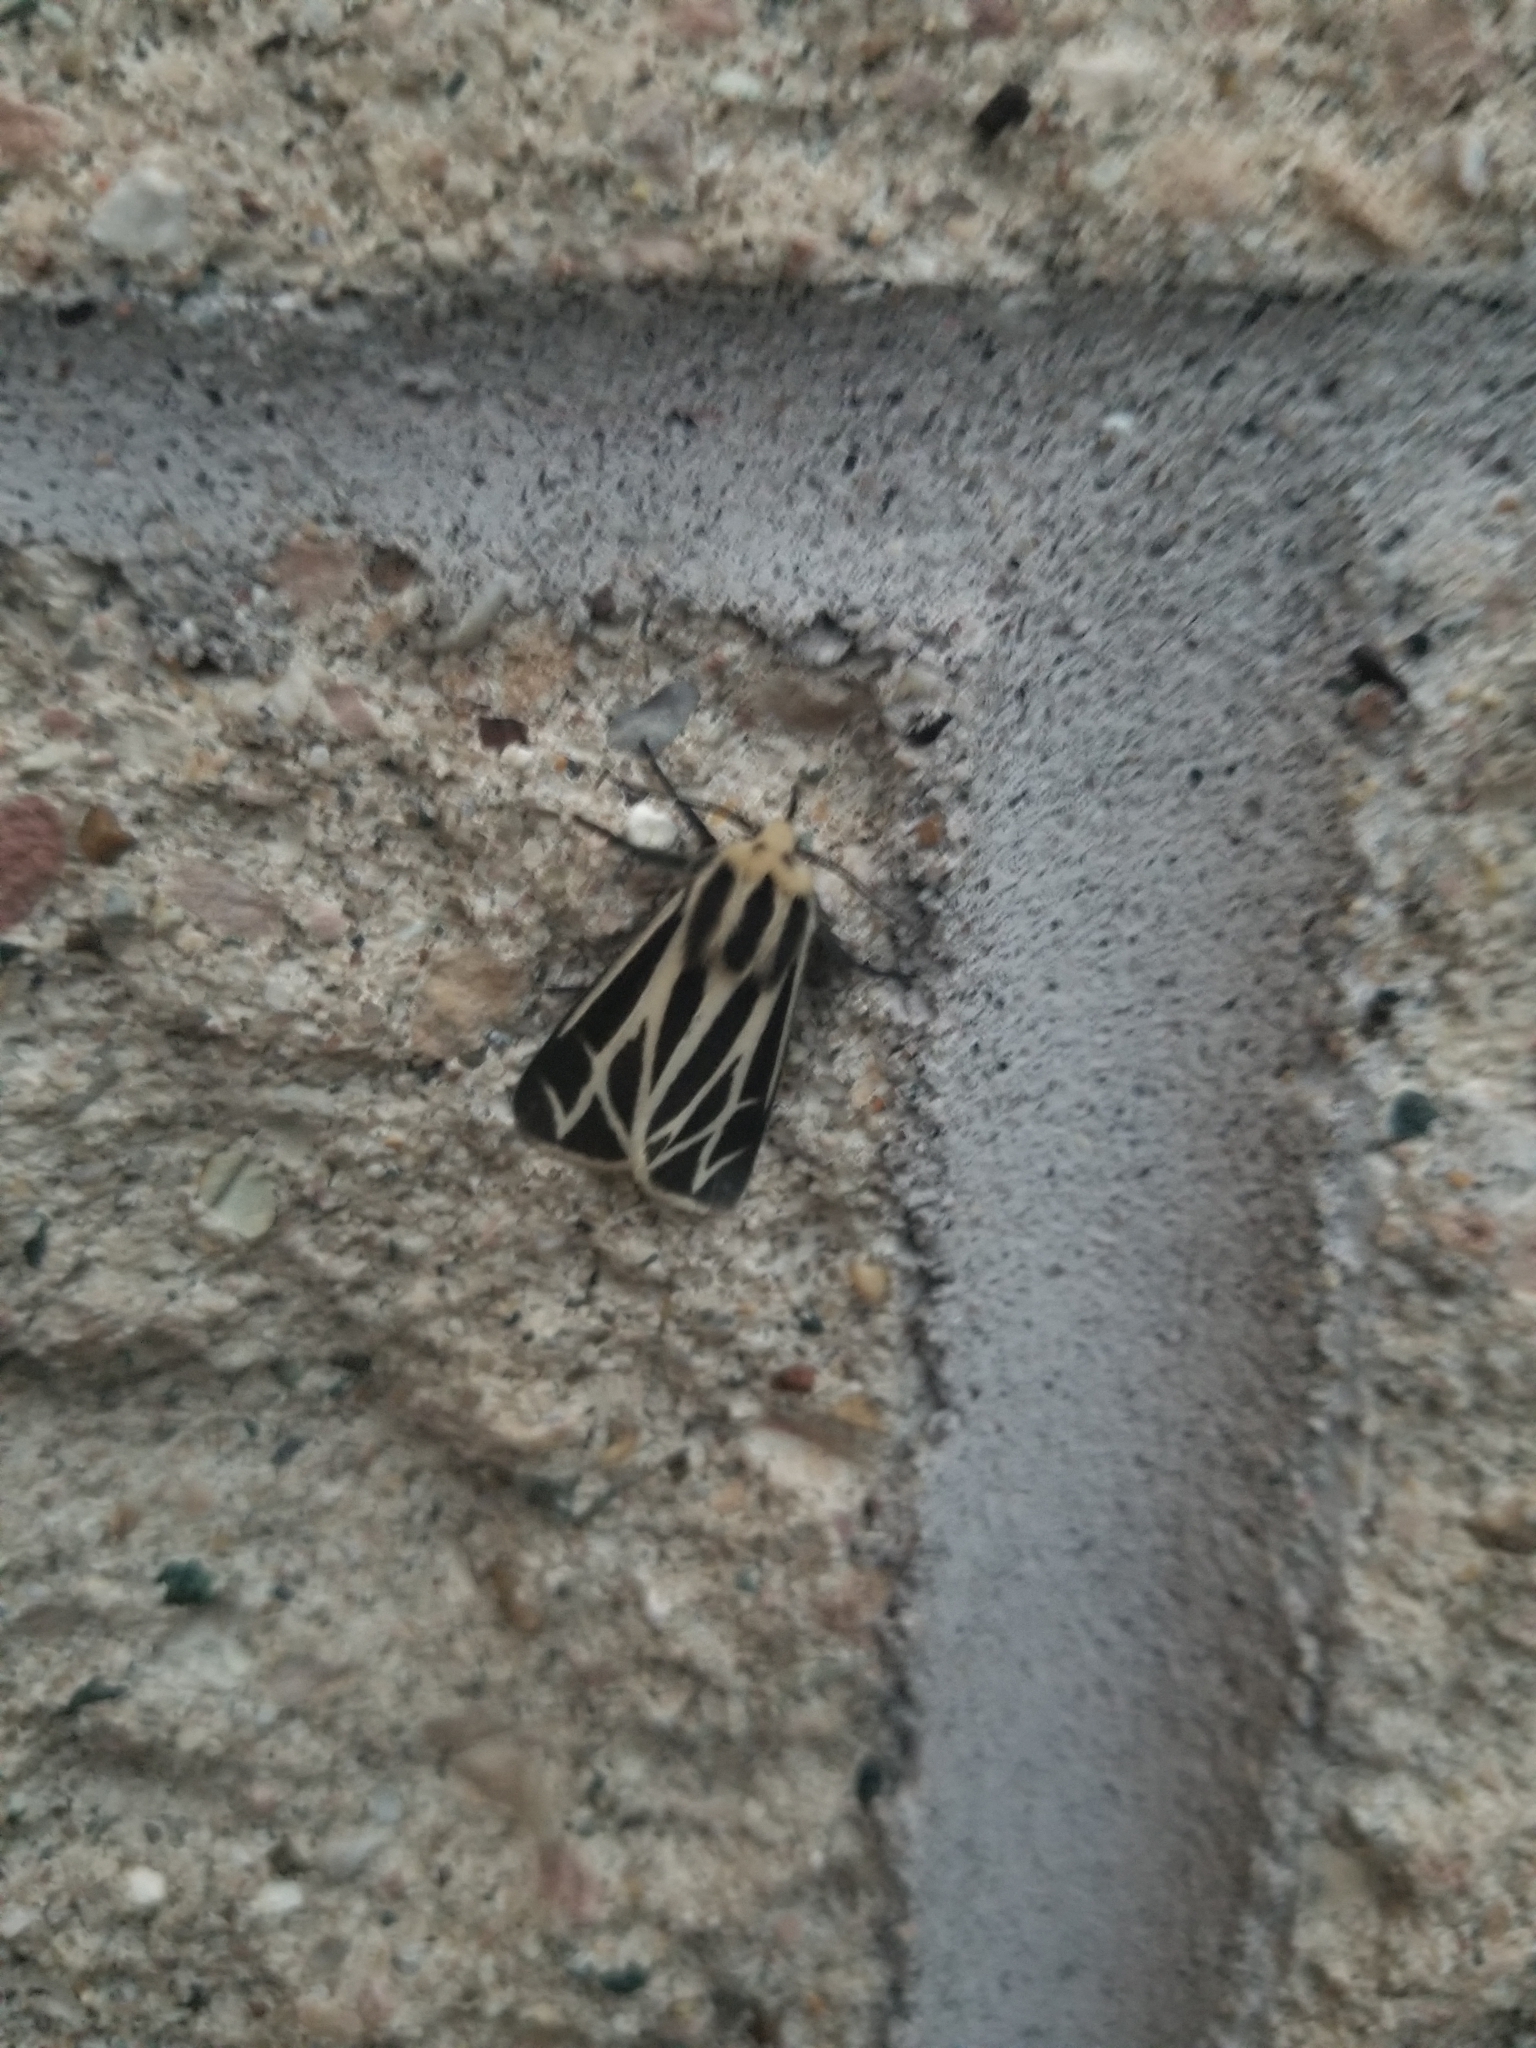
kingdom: Animalia
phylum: Arthropoda
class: Insecta
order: Lepidoptera
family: Erebidae
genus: Apantesis
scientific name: Apantesis carlotta
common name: Carlotta's tiger moth
